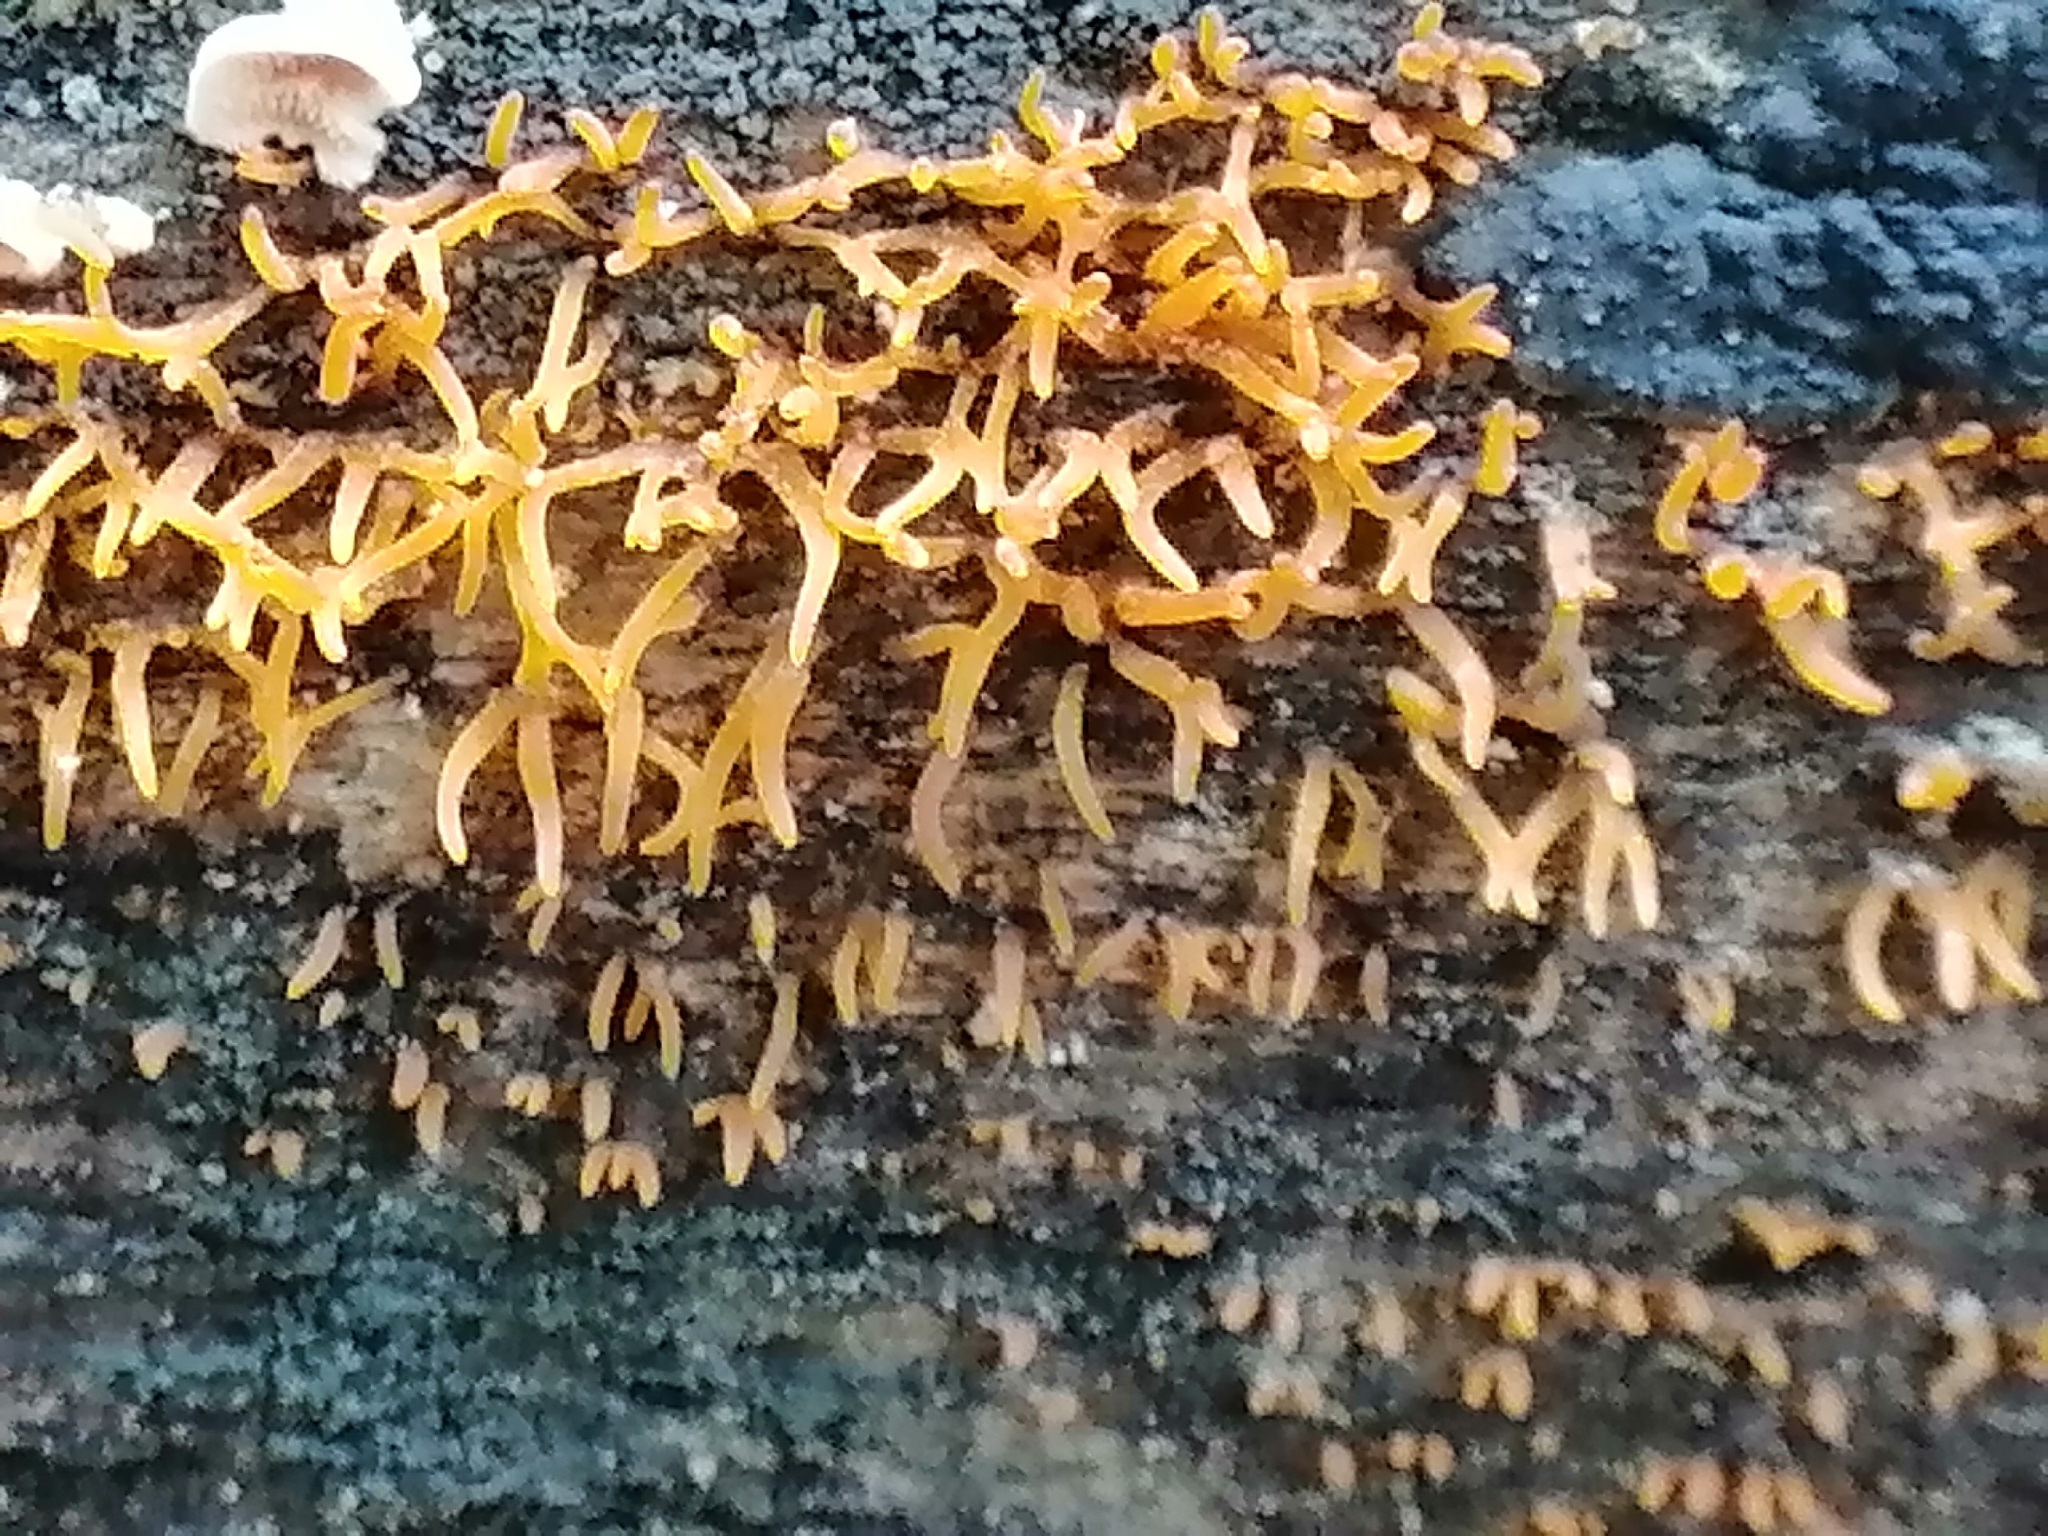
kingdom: Fungi
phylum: Basidiomycota
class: Dacrymycetes
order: Dacrymycetales
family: Dacrymycetaceae
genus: Calocera
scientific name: Calocera cornea
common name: Small stagshorn
